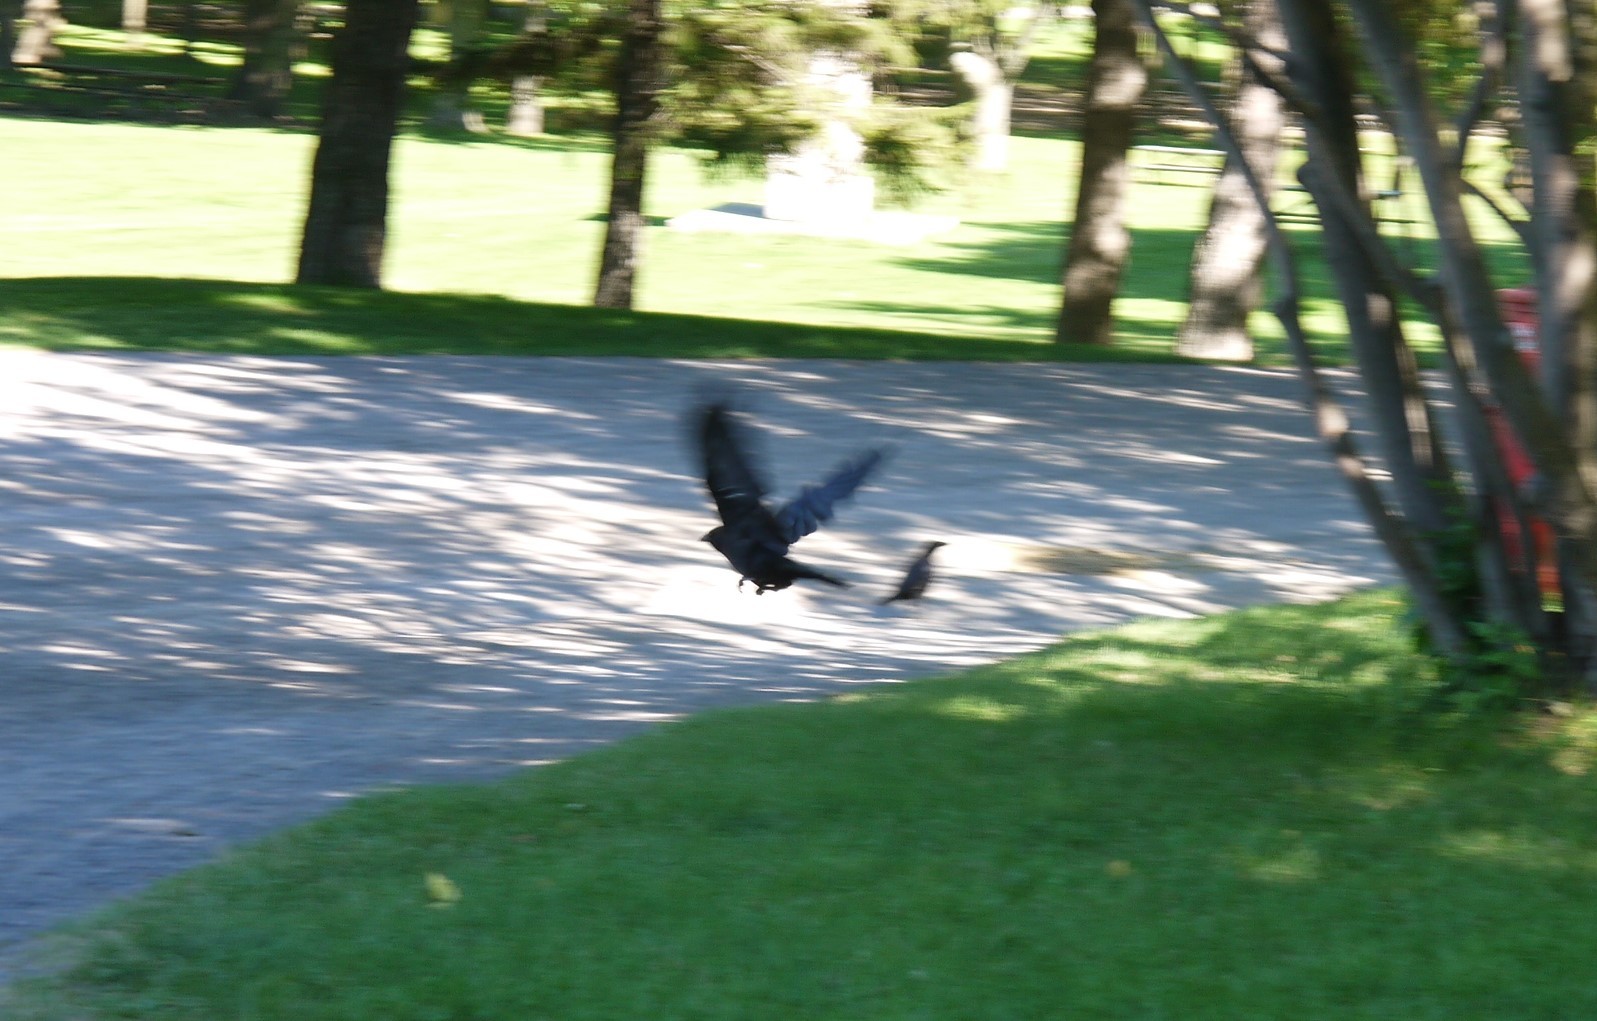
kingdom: Animalia
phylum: Chordata
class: Aves
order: Passeriformes
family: Corvidae
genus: Corvus
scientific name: Corvus brachyrhynchos
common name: American crow
